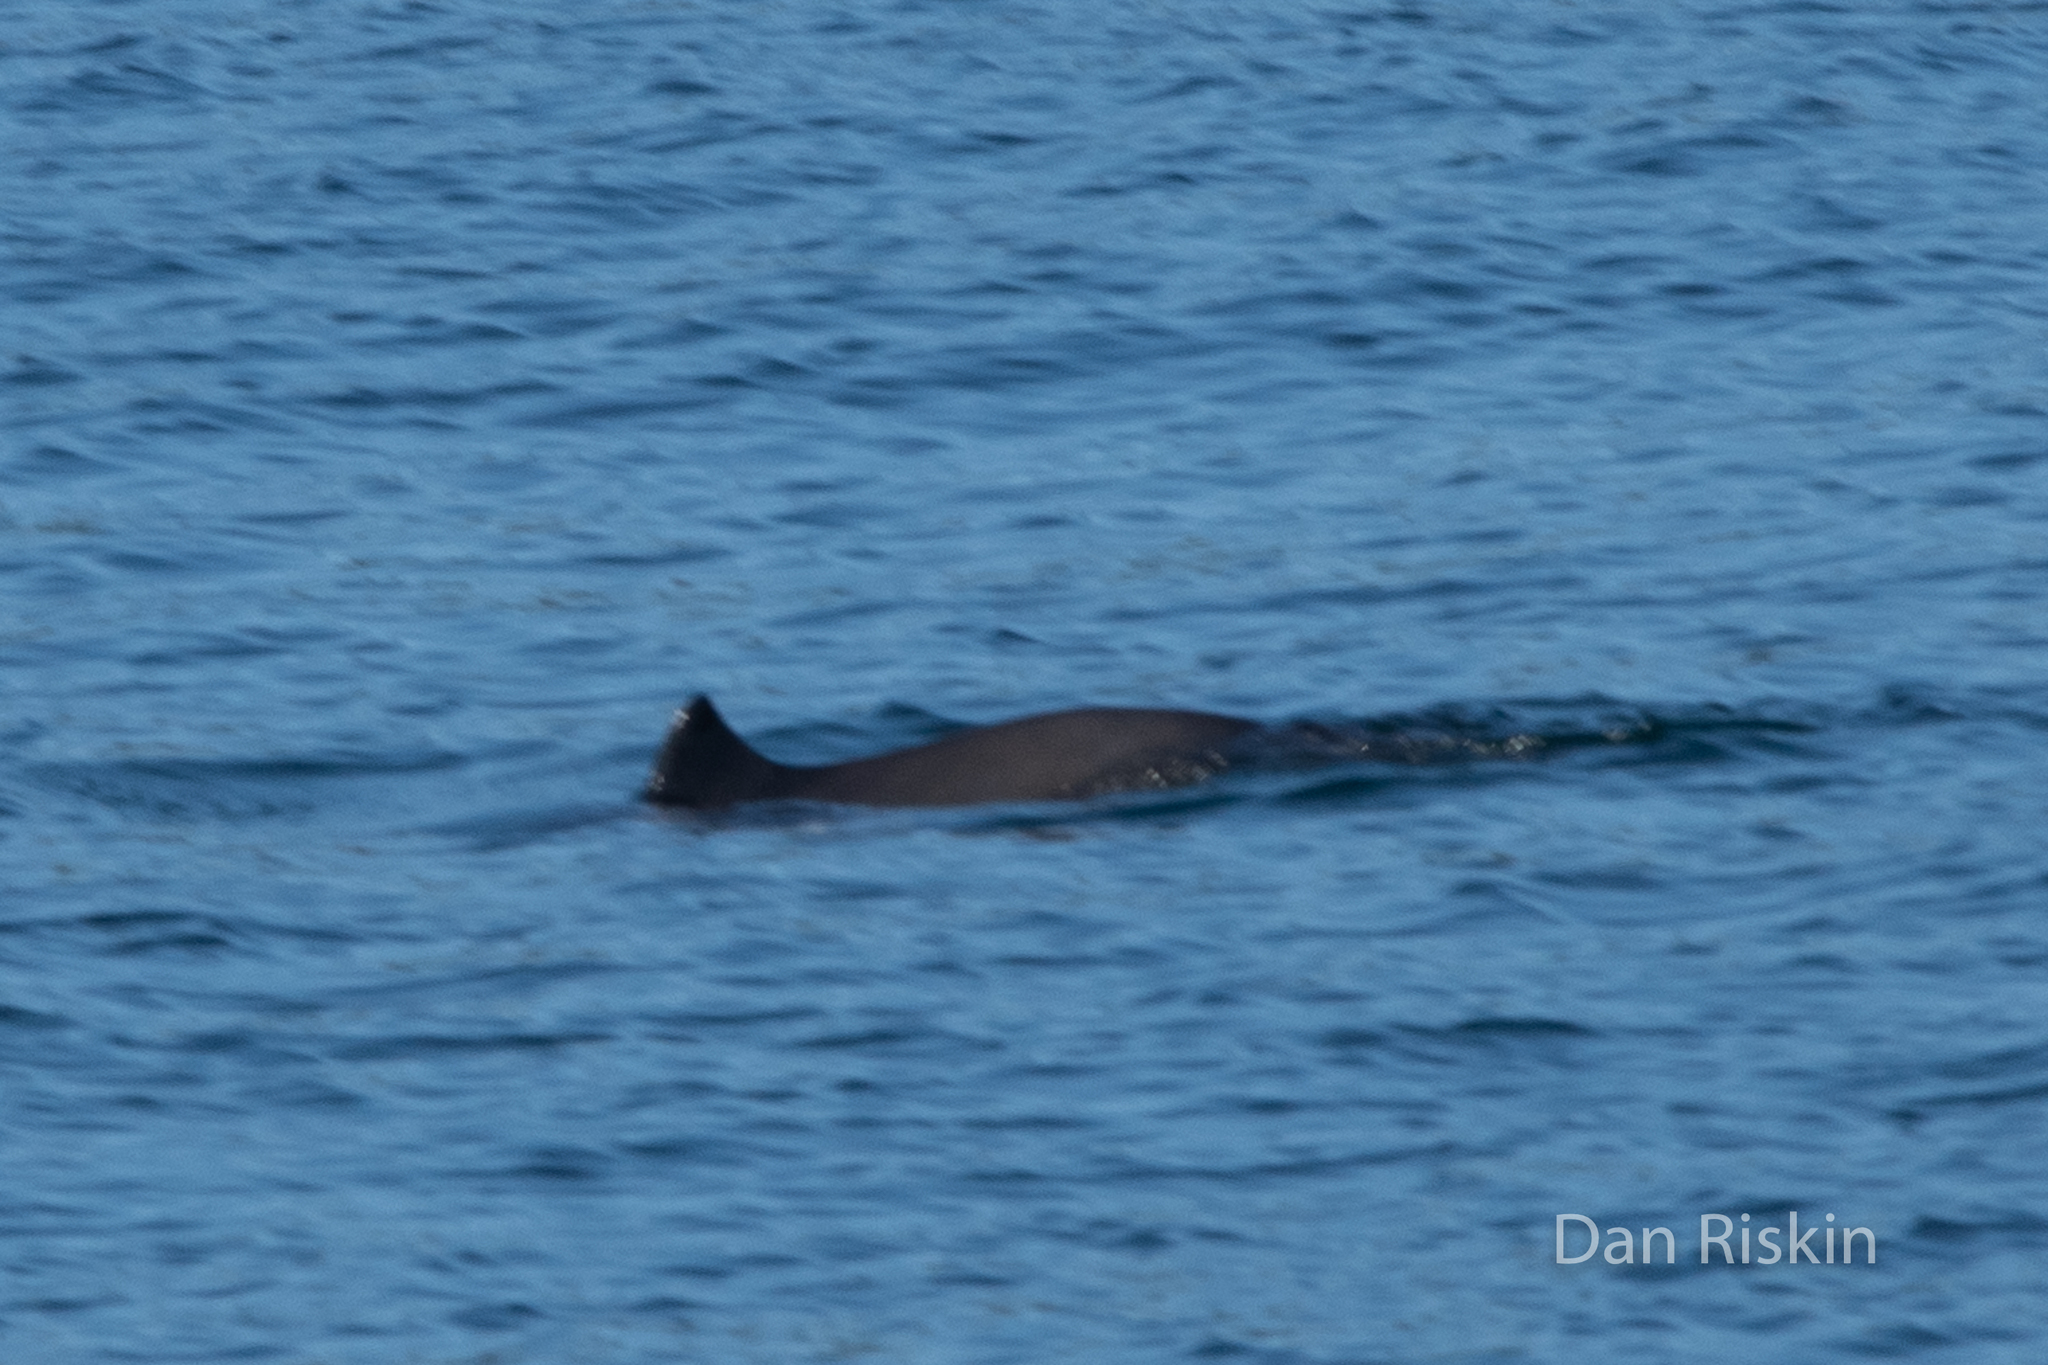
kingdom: Animalia
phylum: Chordata
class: Mammalia
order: Cetacea
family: Phocoenidae
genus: Phocoena
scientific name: Phocoena phocoena
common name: Harbor porpoise
